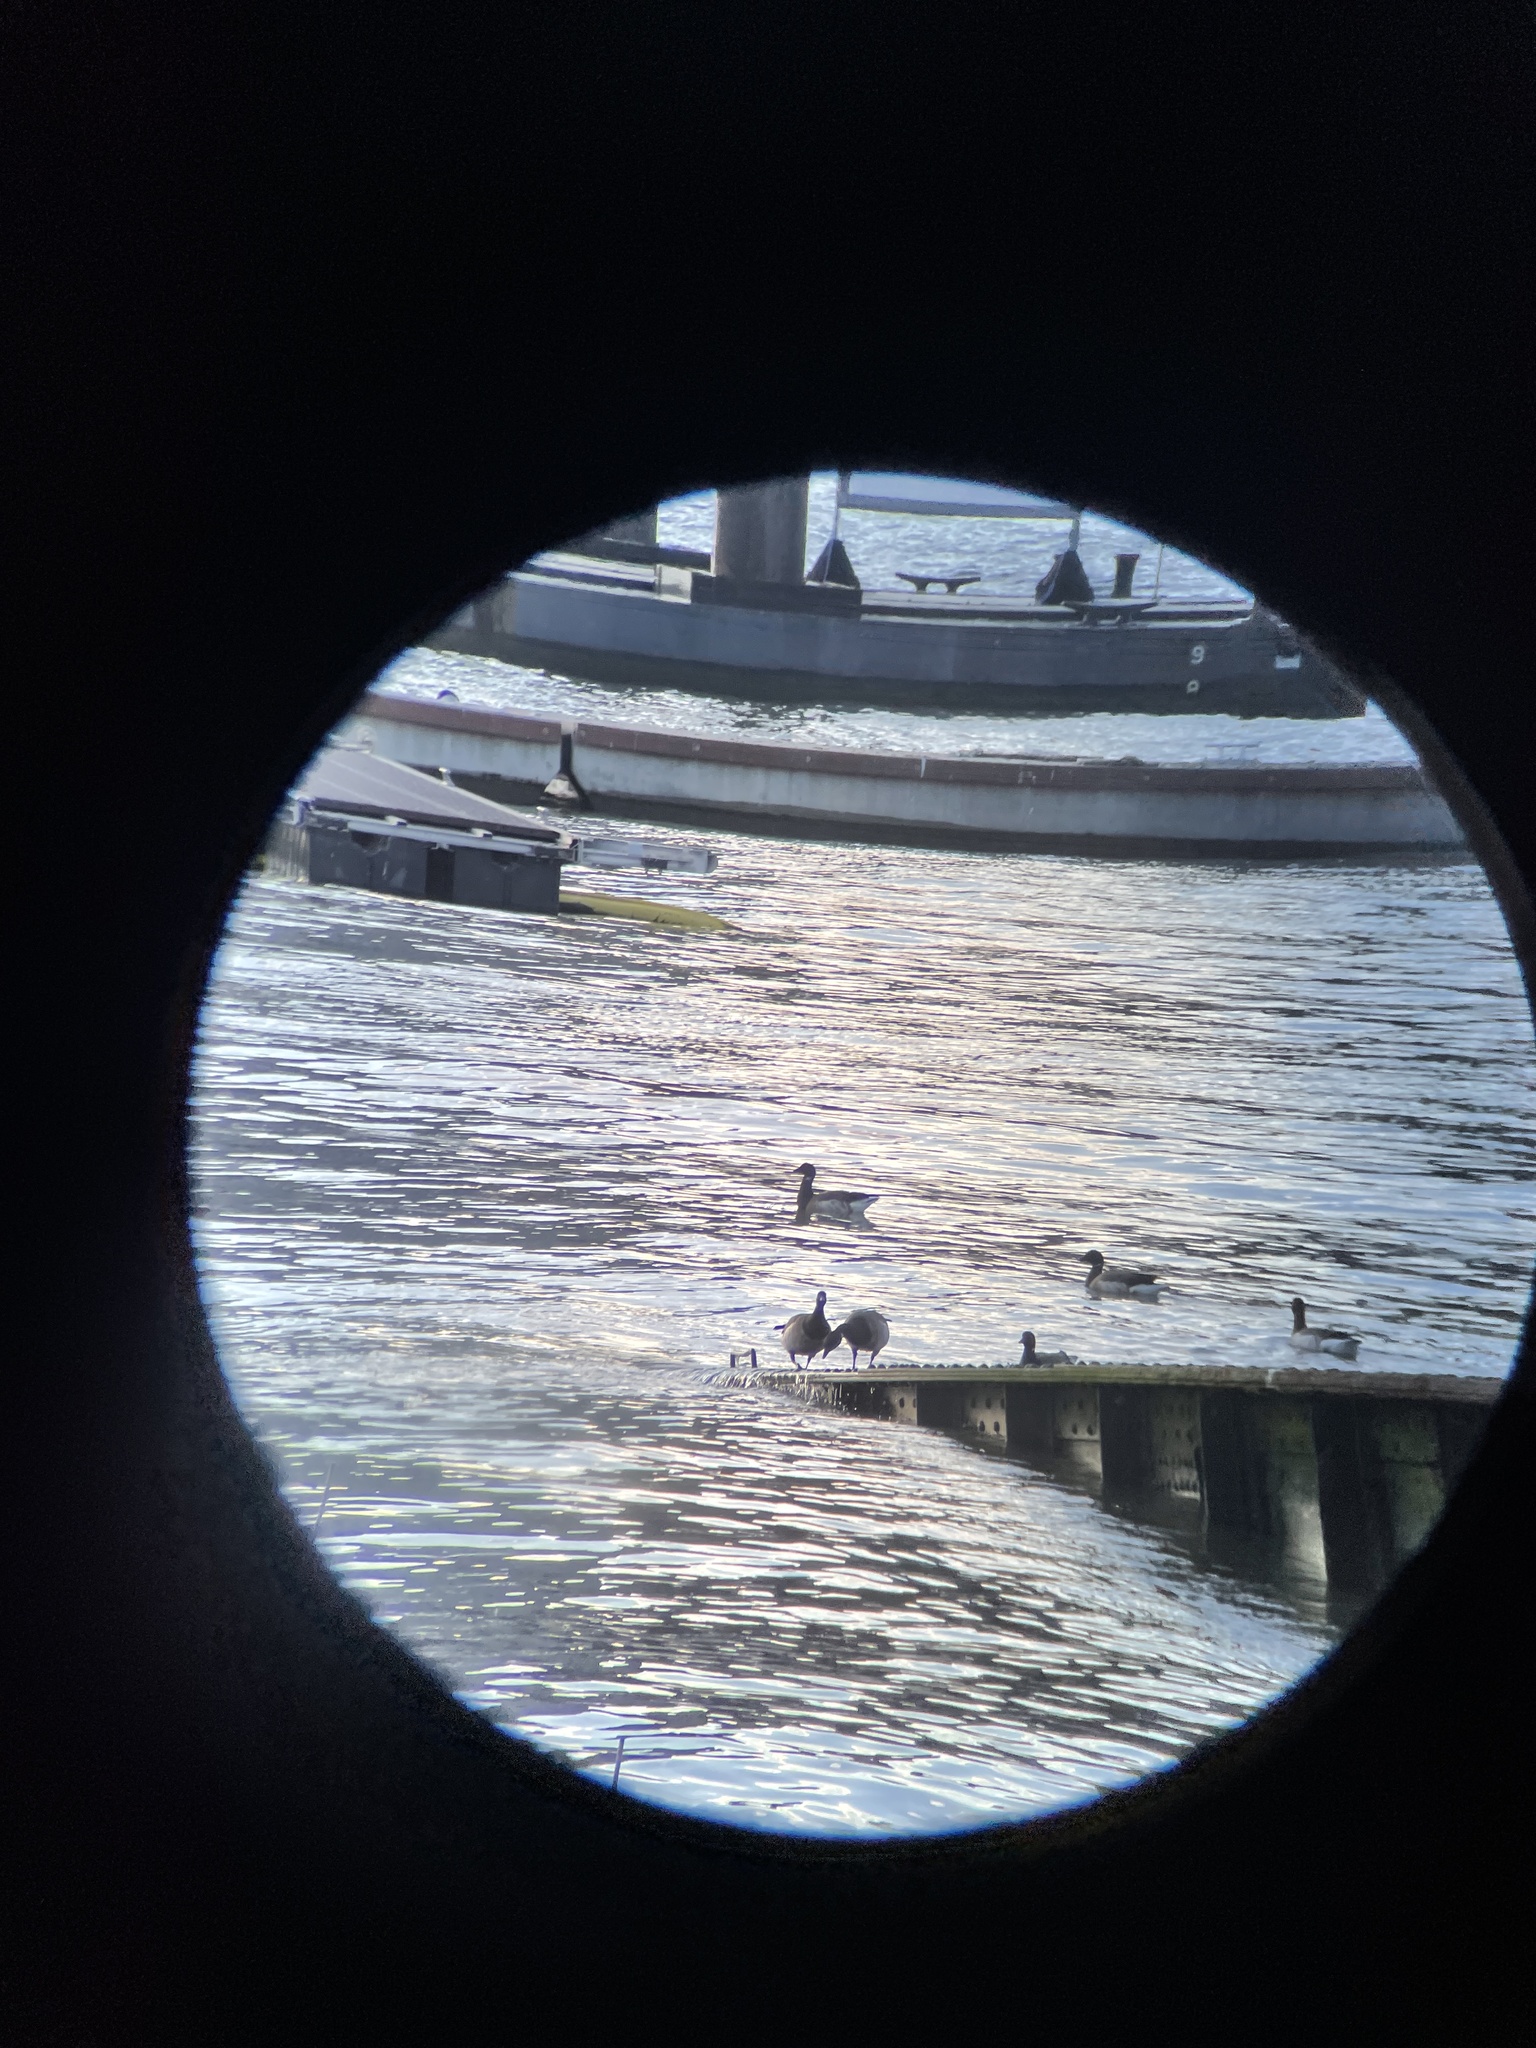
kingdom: Animalia
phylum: Chordata
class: Aves
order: Anseriformes
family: Anatidae
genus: Branta
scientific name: Branta bernicla
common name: Brant goose
